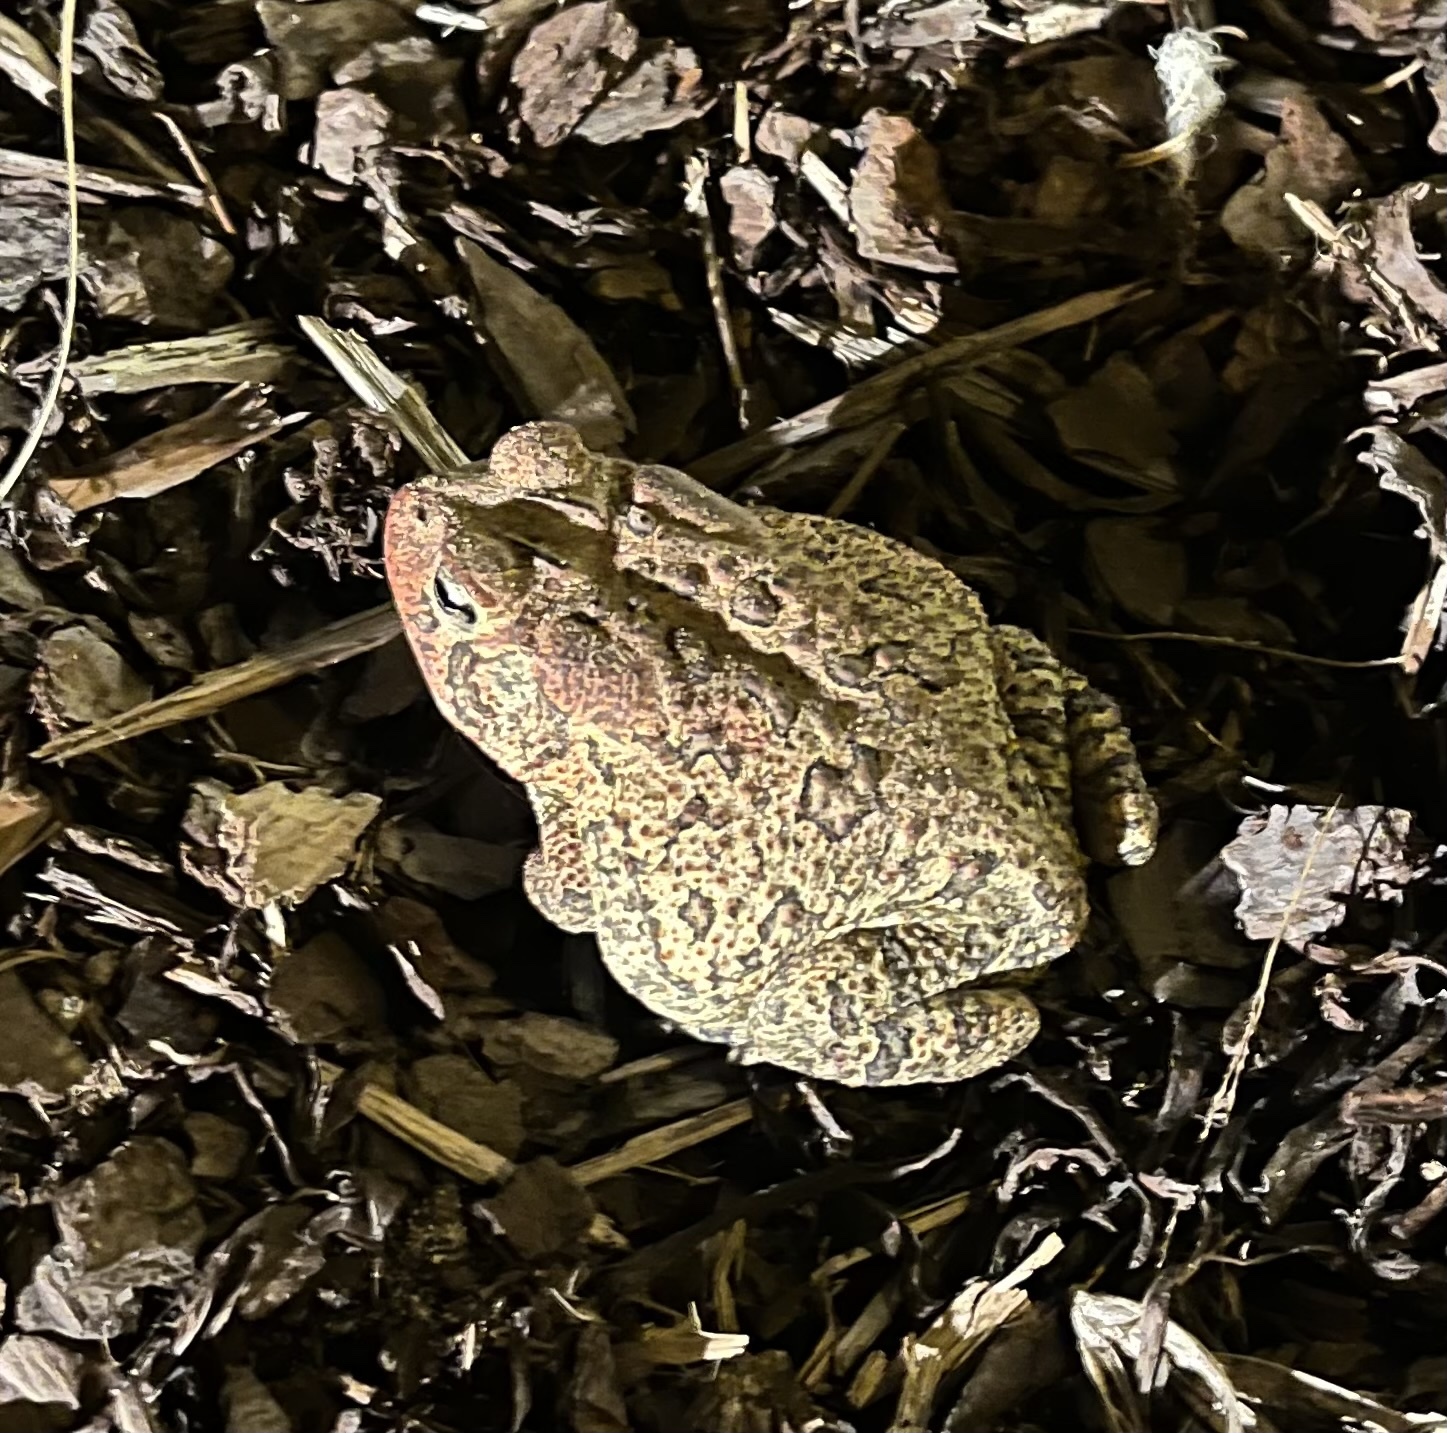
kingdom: Animalia
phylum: Chordata
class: Amphibia
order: Anura
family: Bufonidae
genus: Anaxyrus
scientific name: Anaxyrus terrestris
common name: Southern toad
